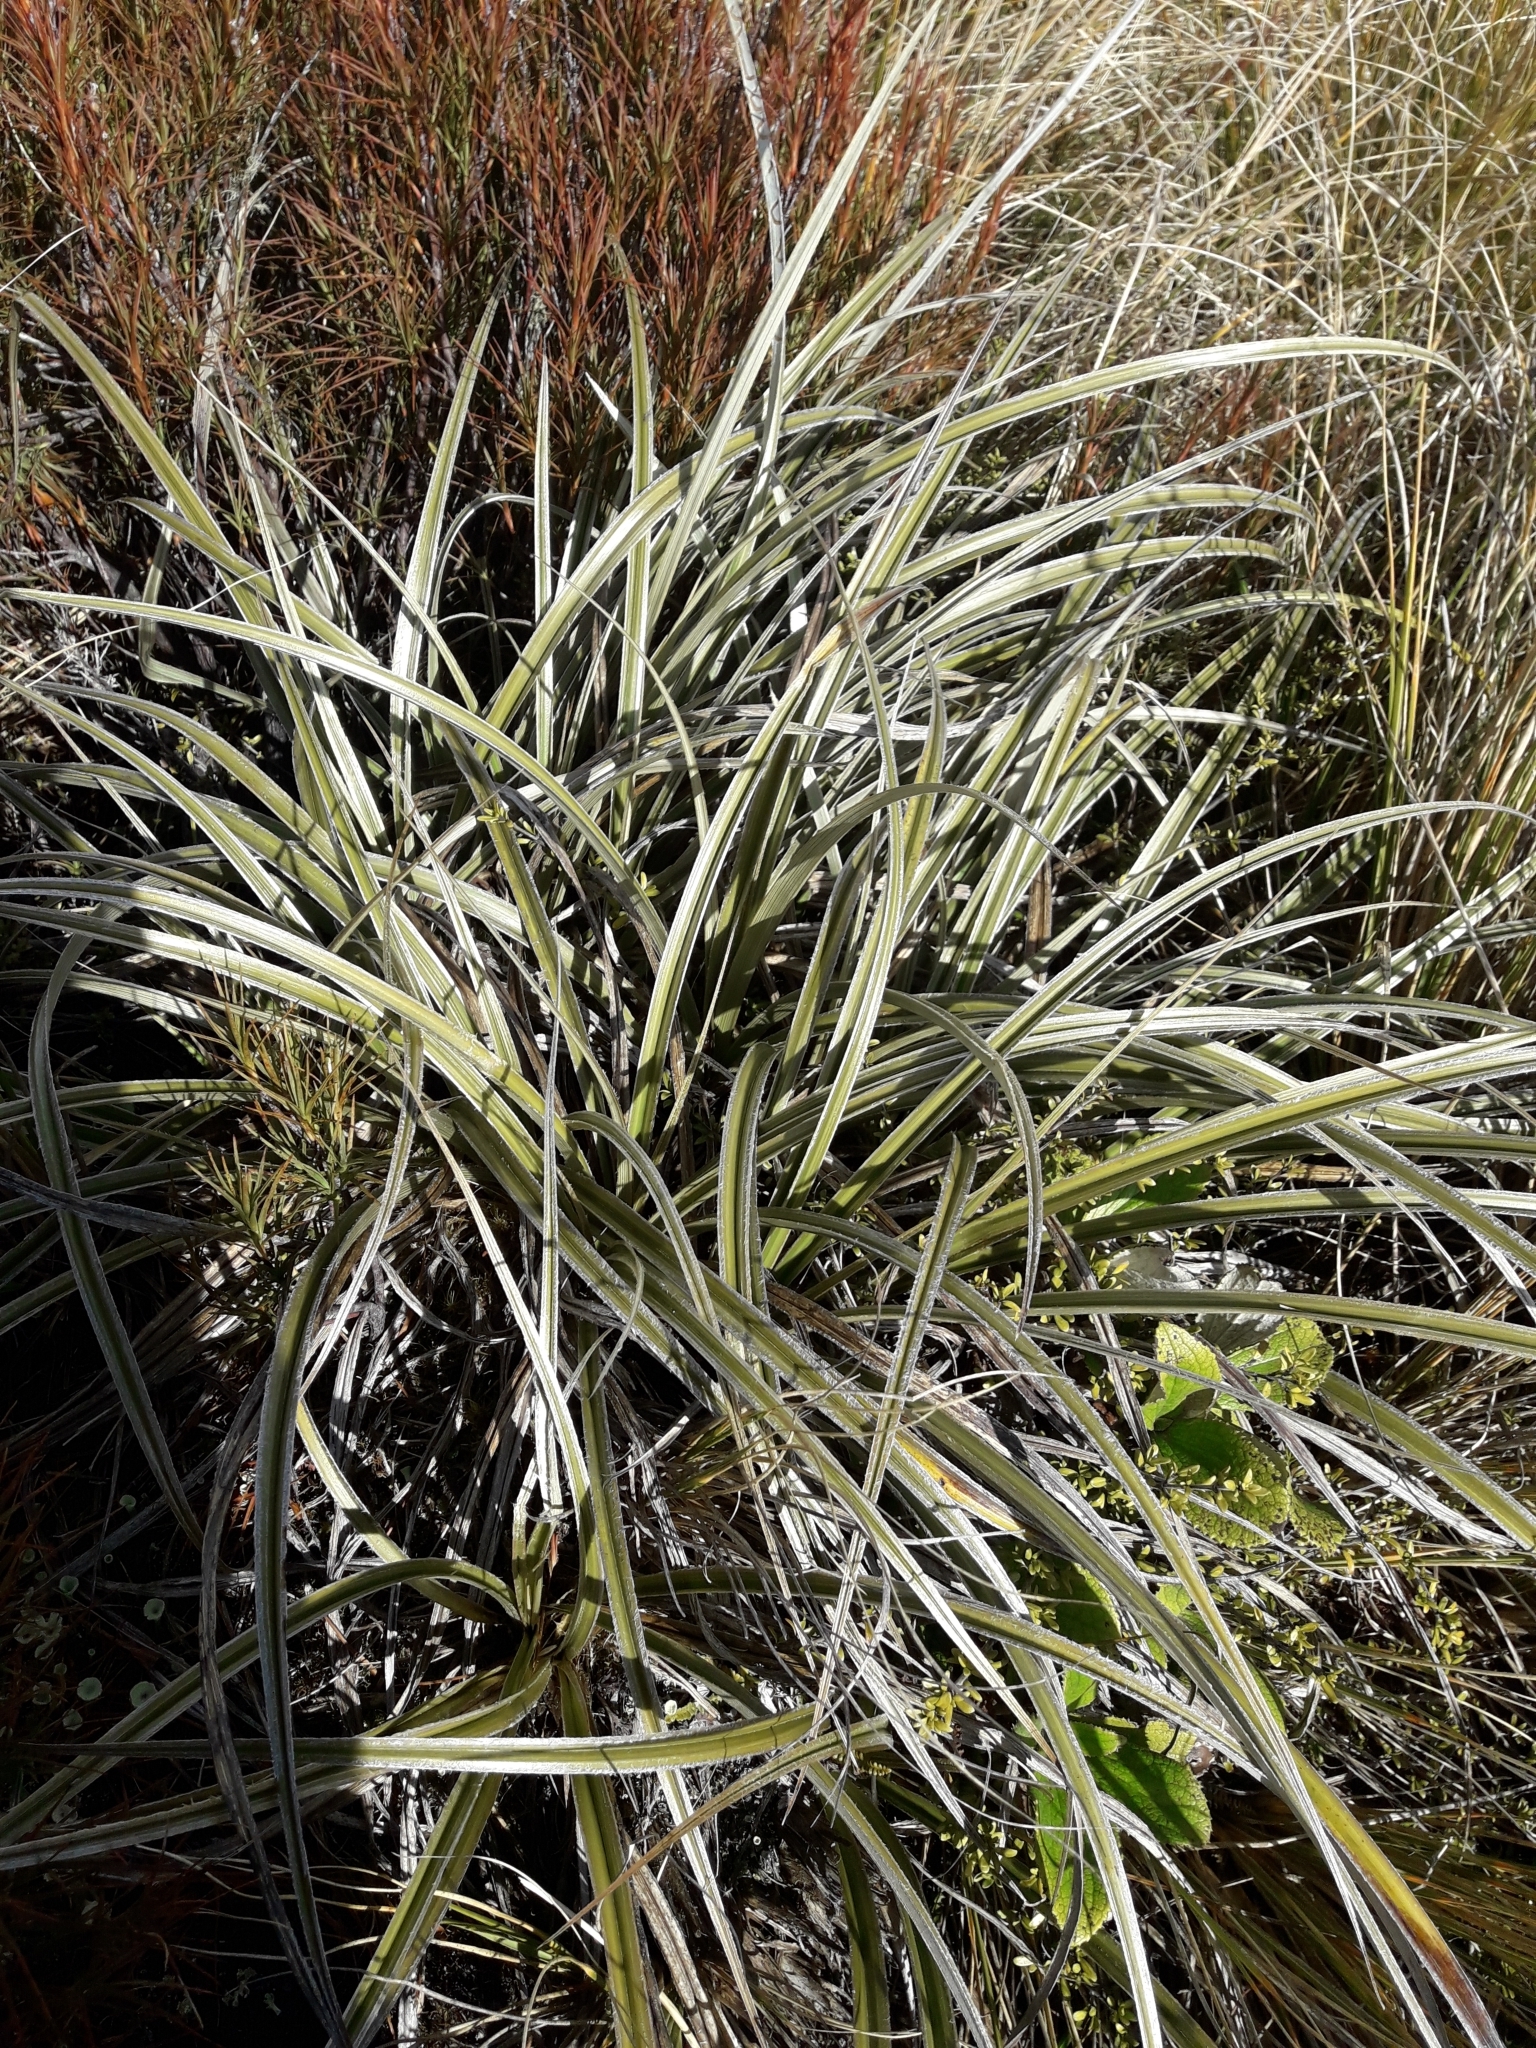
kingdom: Plantae
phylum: Tracheophyta
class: Liliopsida
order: Asparagales
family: Asteliaceae
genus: Astelia
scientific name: Astelia nervosa
